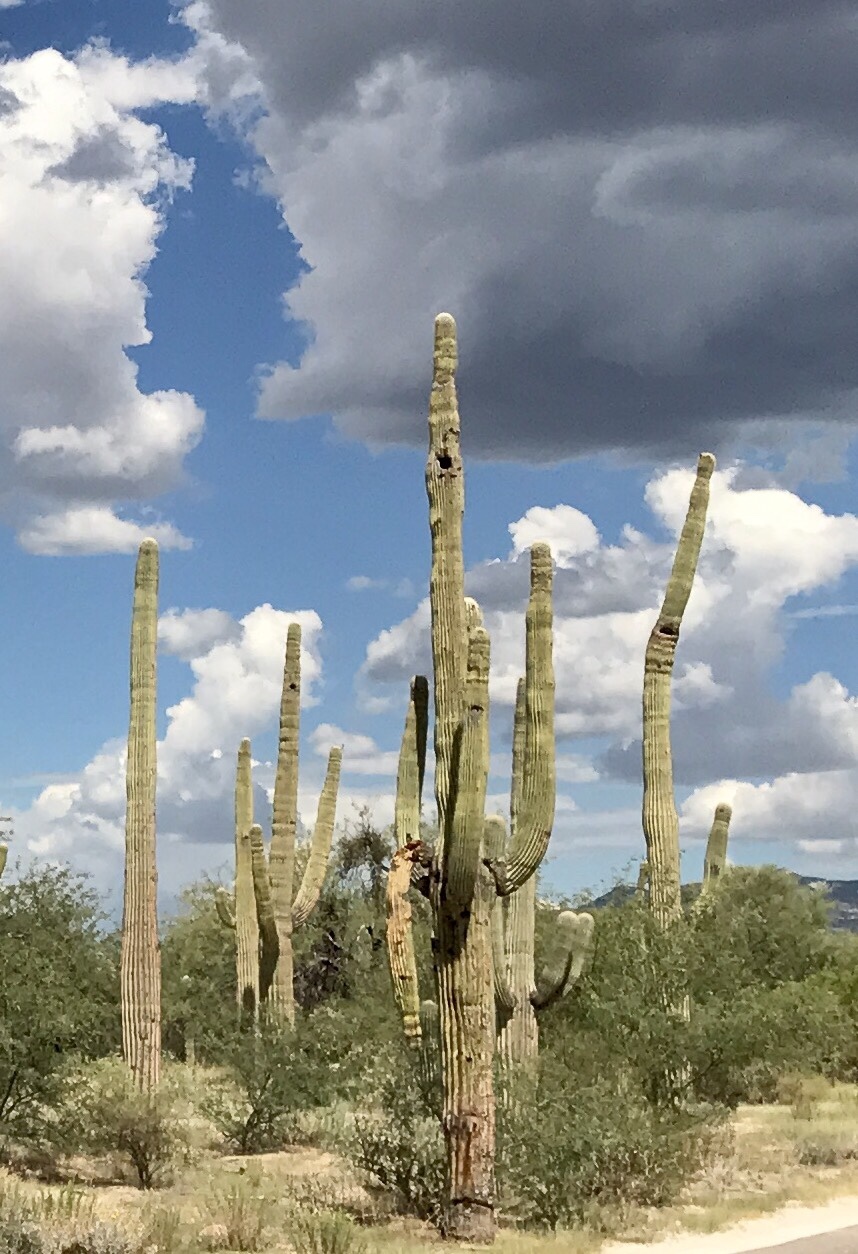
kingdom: Plantae
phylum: Tracheophyta
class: Magnoliopsida
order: Caryophyllales
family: Cactaceae
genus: Carnegiea
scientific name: Carnegiea gigantea
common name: Saguaro
